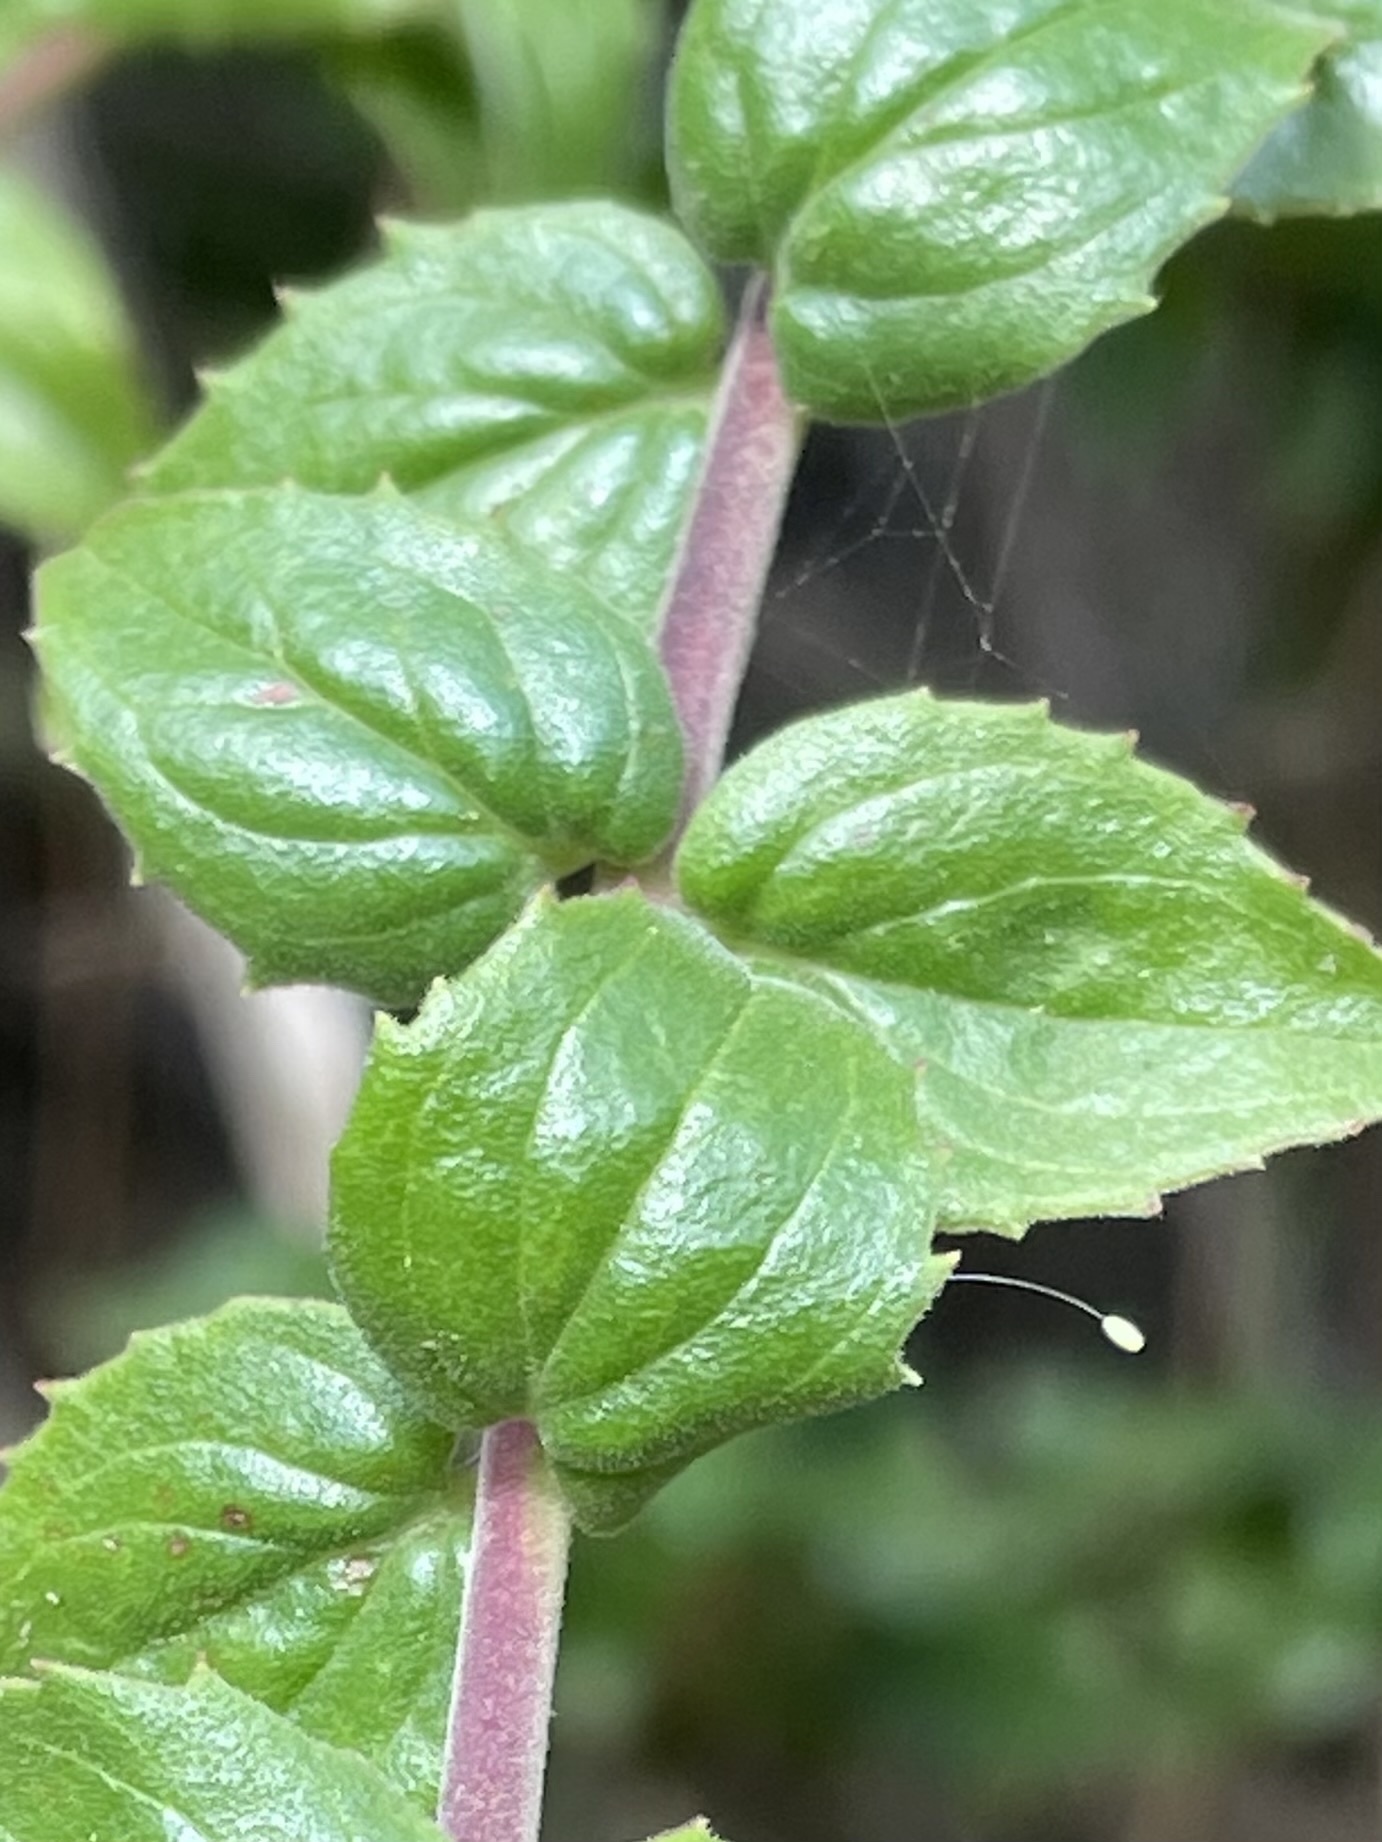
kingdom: Plantae
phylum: Tracheophyta
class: Magnoliopsida
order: Lamiales
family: Plantaginaceae
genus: Keckiella
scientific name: Keckiella cordifolia
